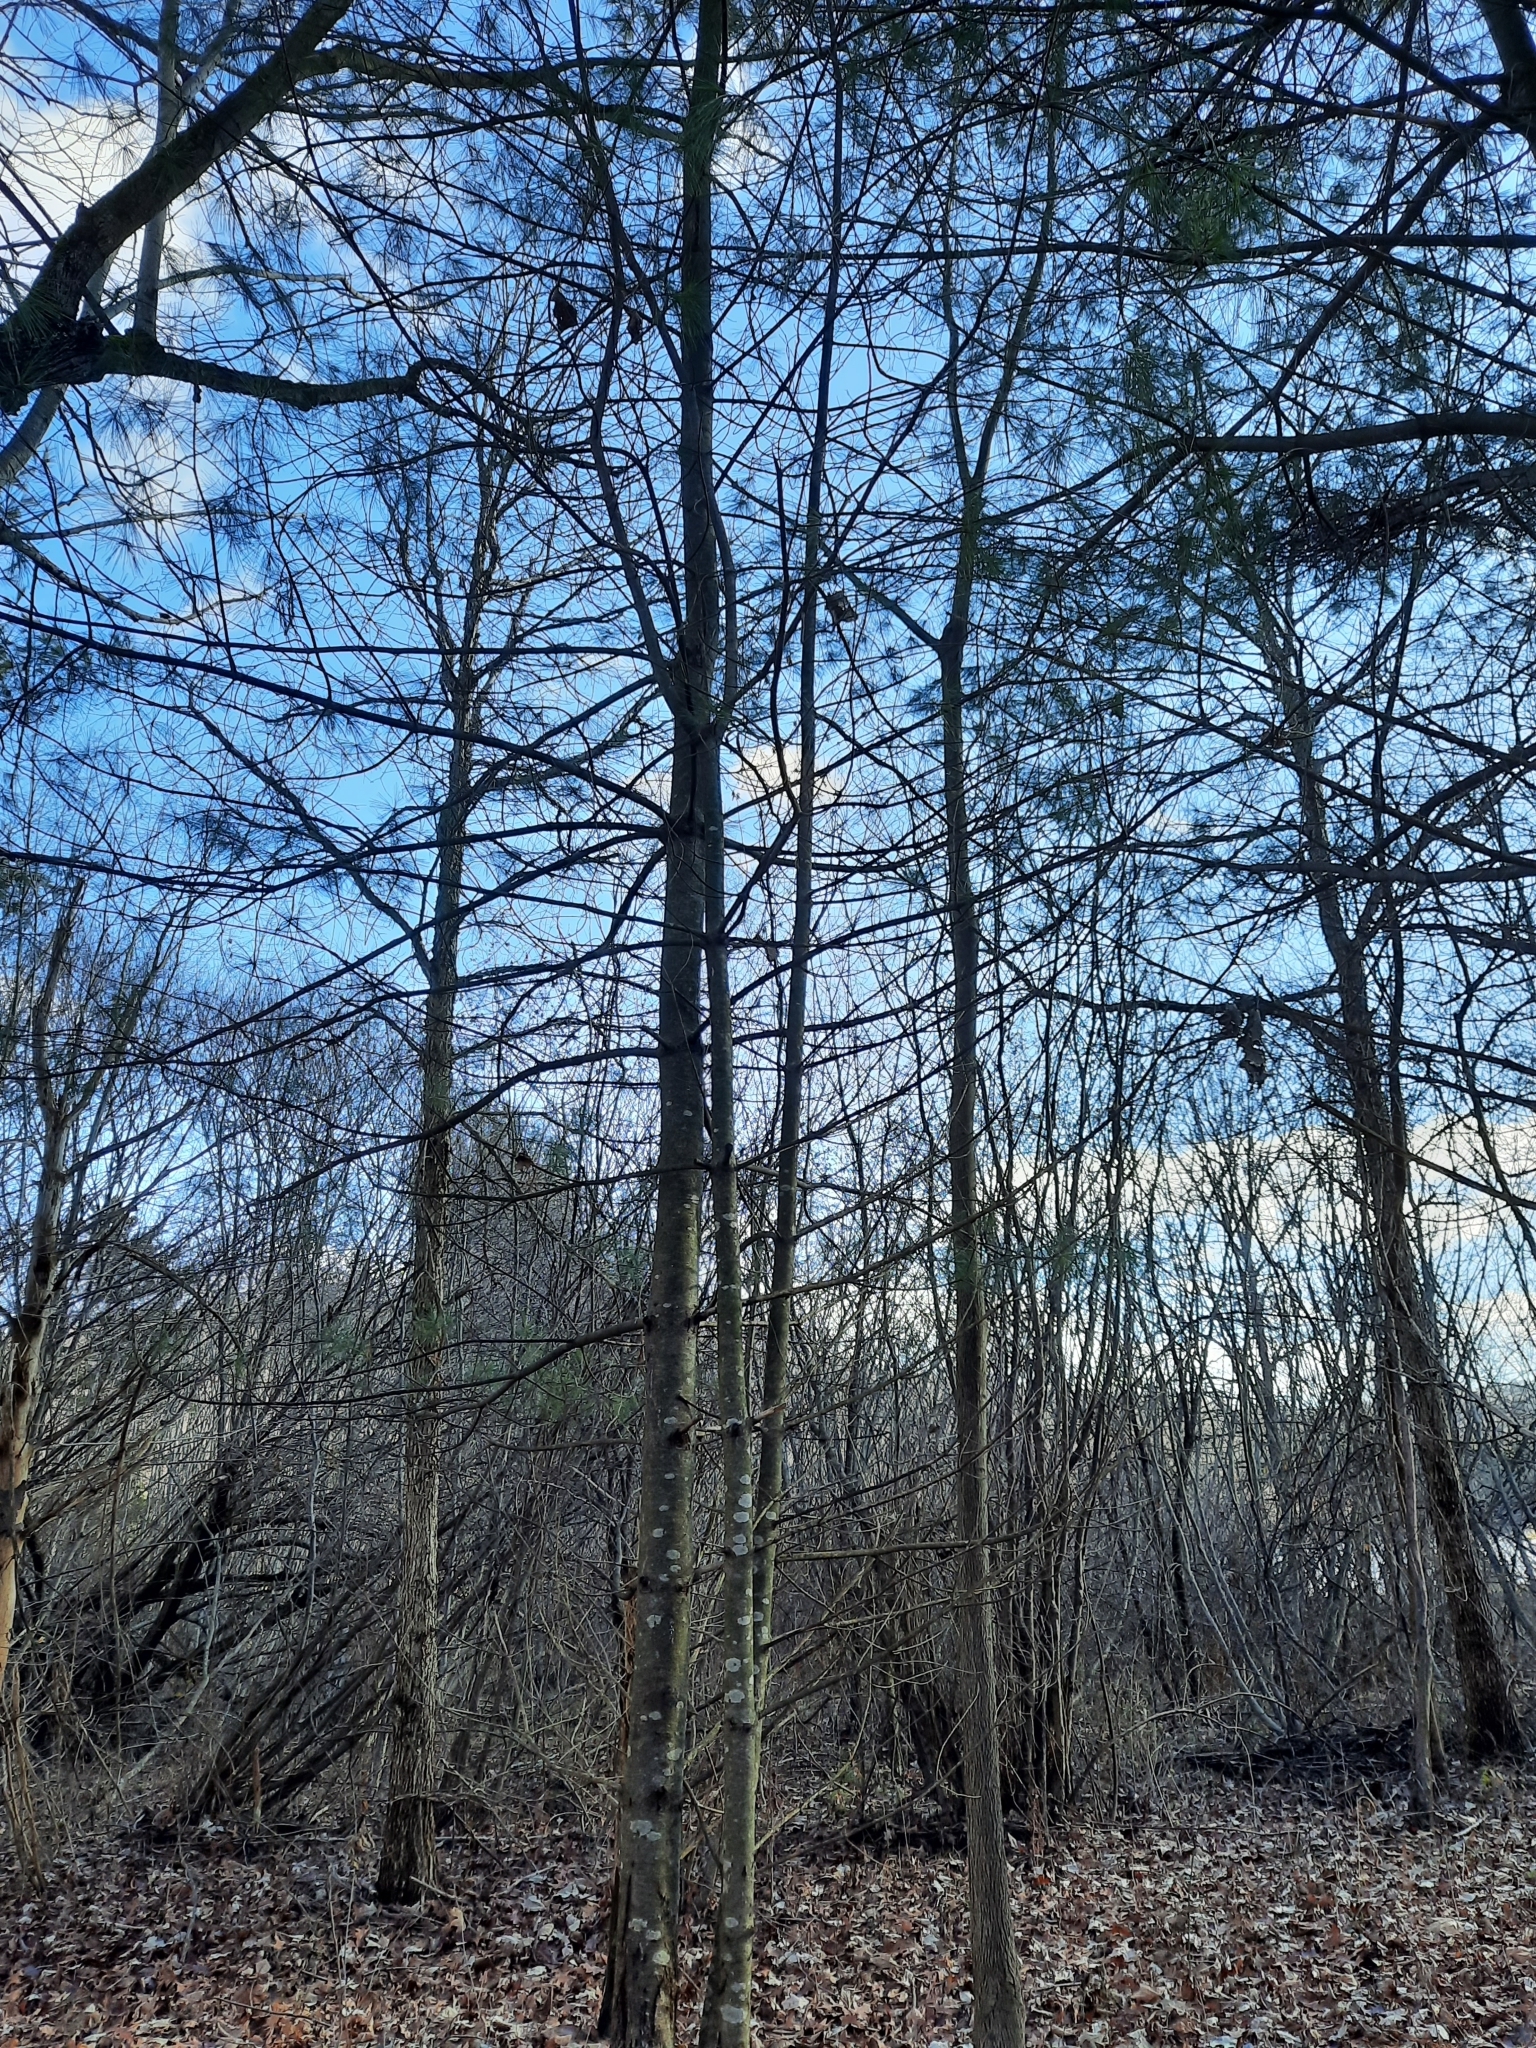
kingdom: Plantae
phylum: Tracheophyta
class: Pinopsida
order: Pinales
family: Pinaceae
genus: Pinus
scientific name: Pinus strobus
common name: Weymouth pine
